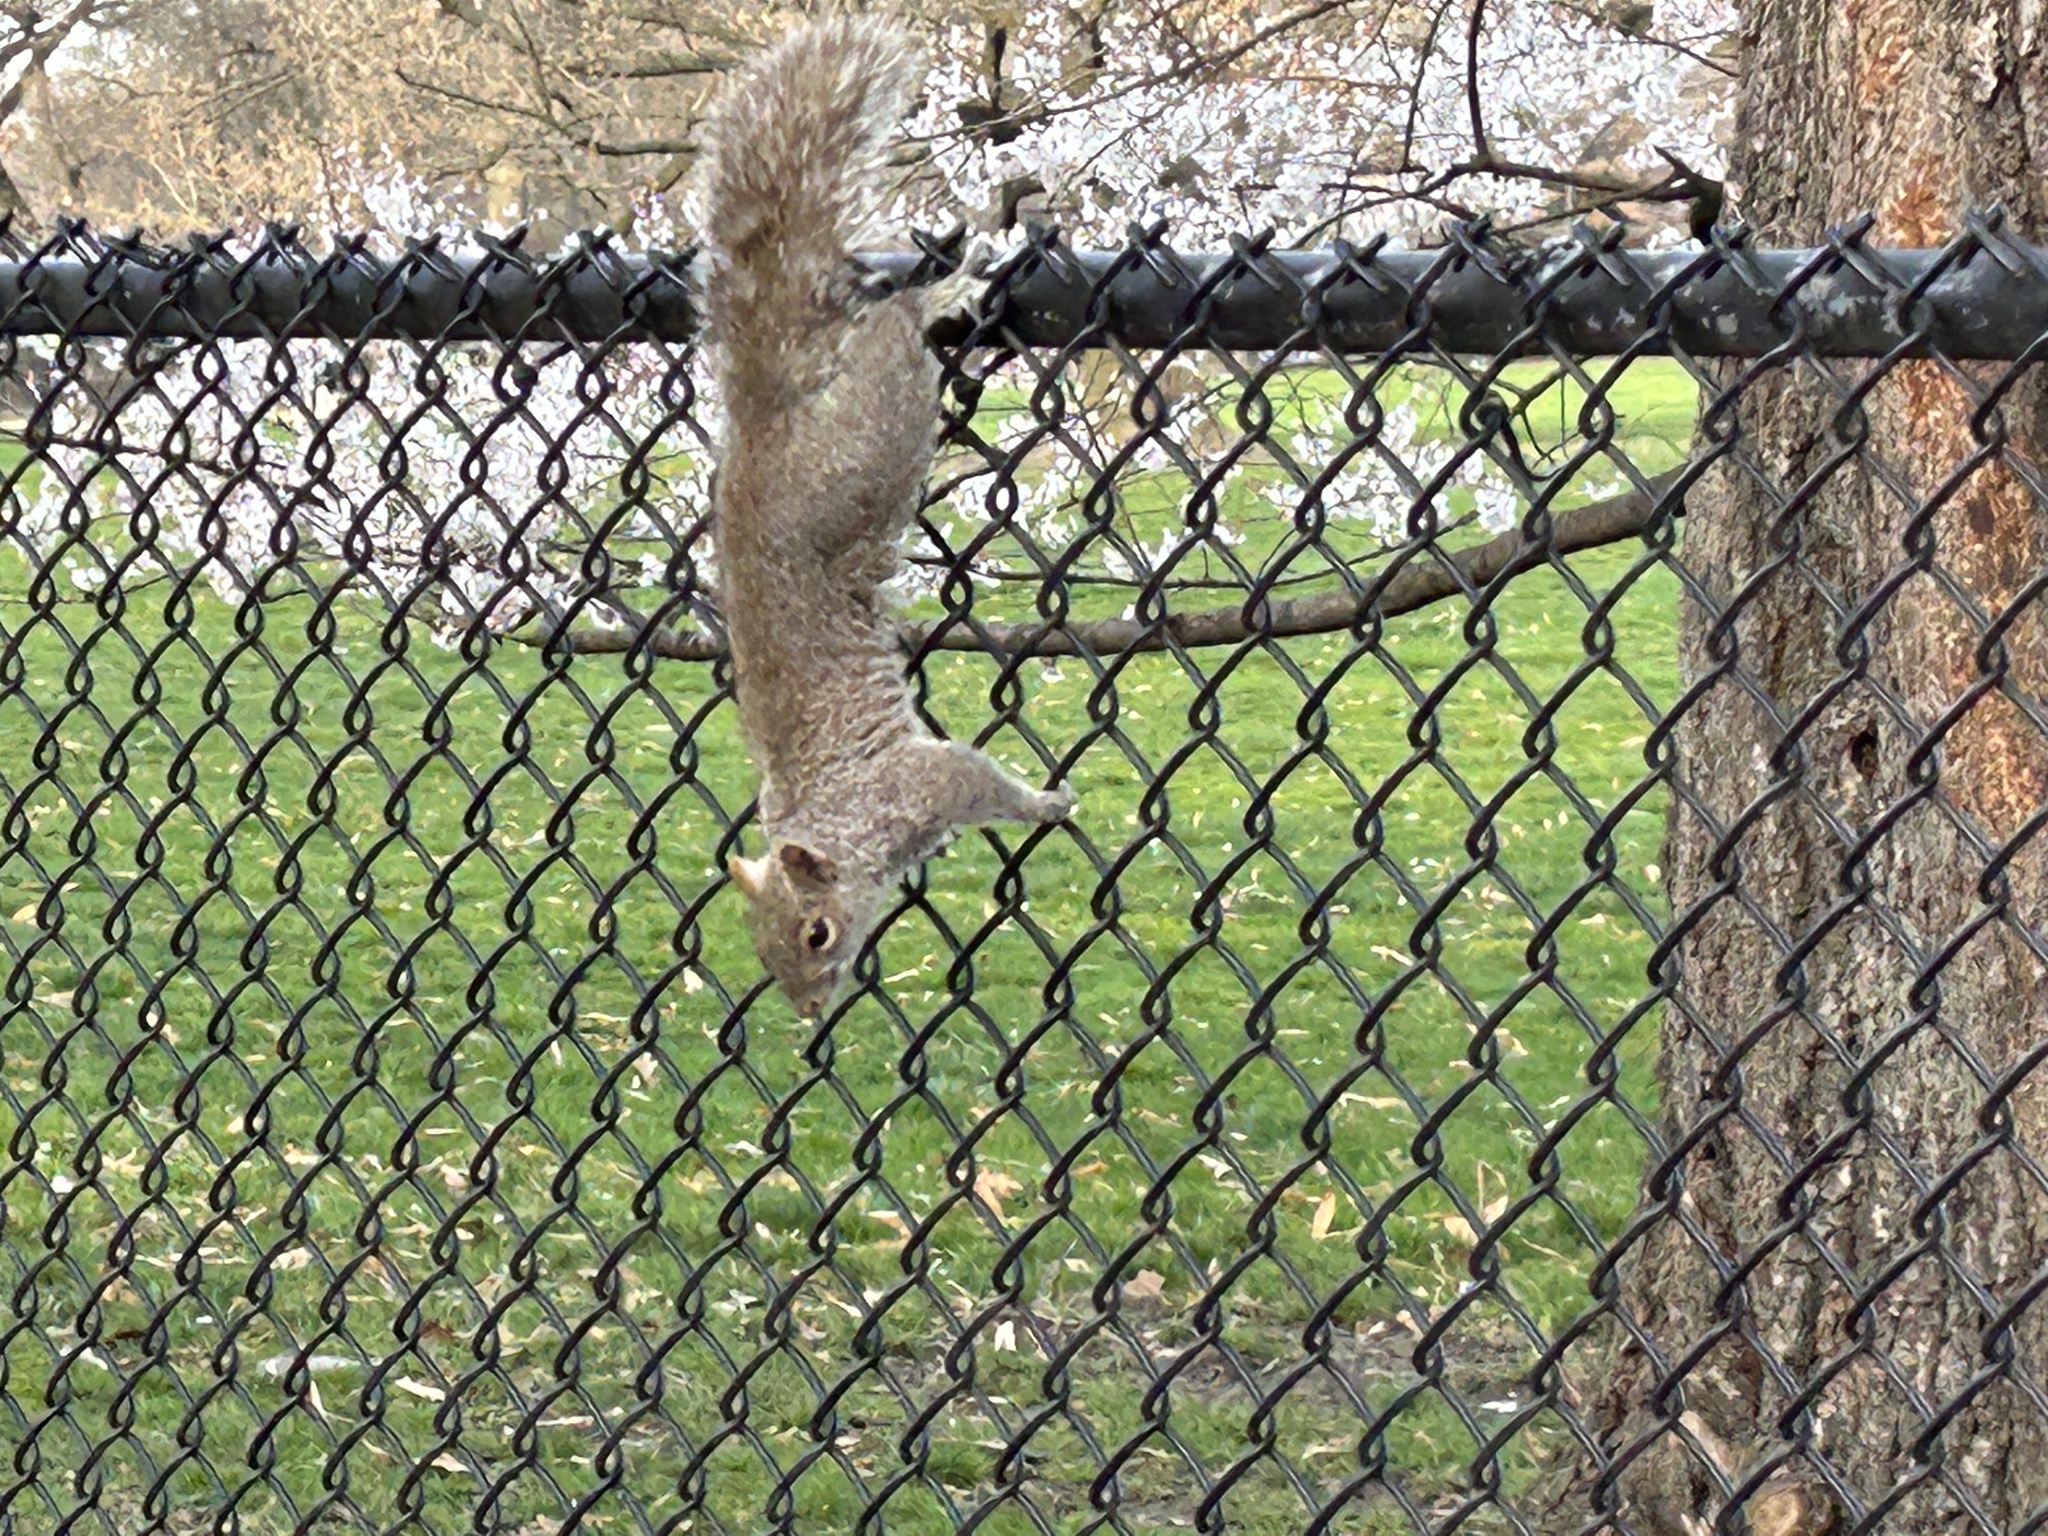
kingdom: Animalia
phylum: Chordata
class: Mammalia
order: Rodentia
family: Sciuridae
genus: Sciurus
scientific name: Sciurus carolinensis
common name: Eastern gray squirrel
